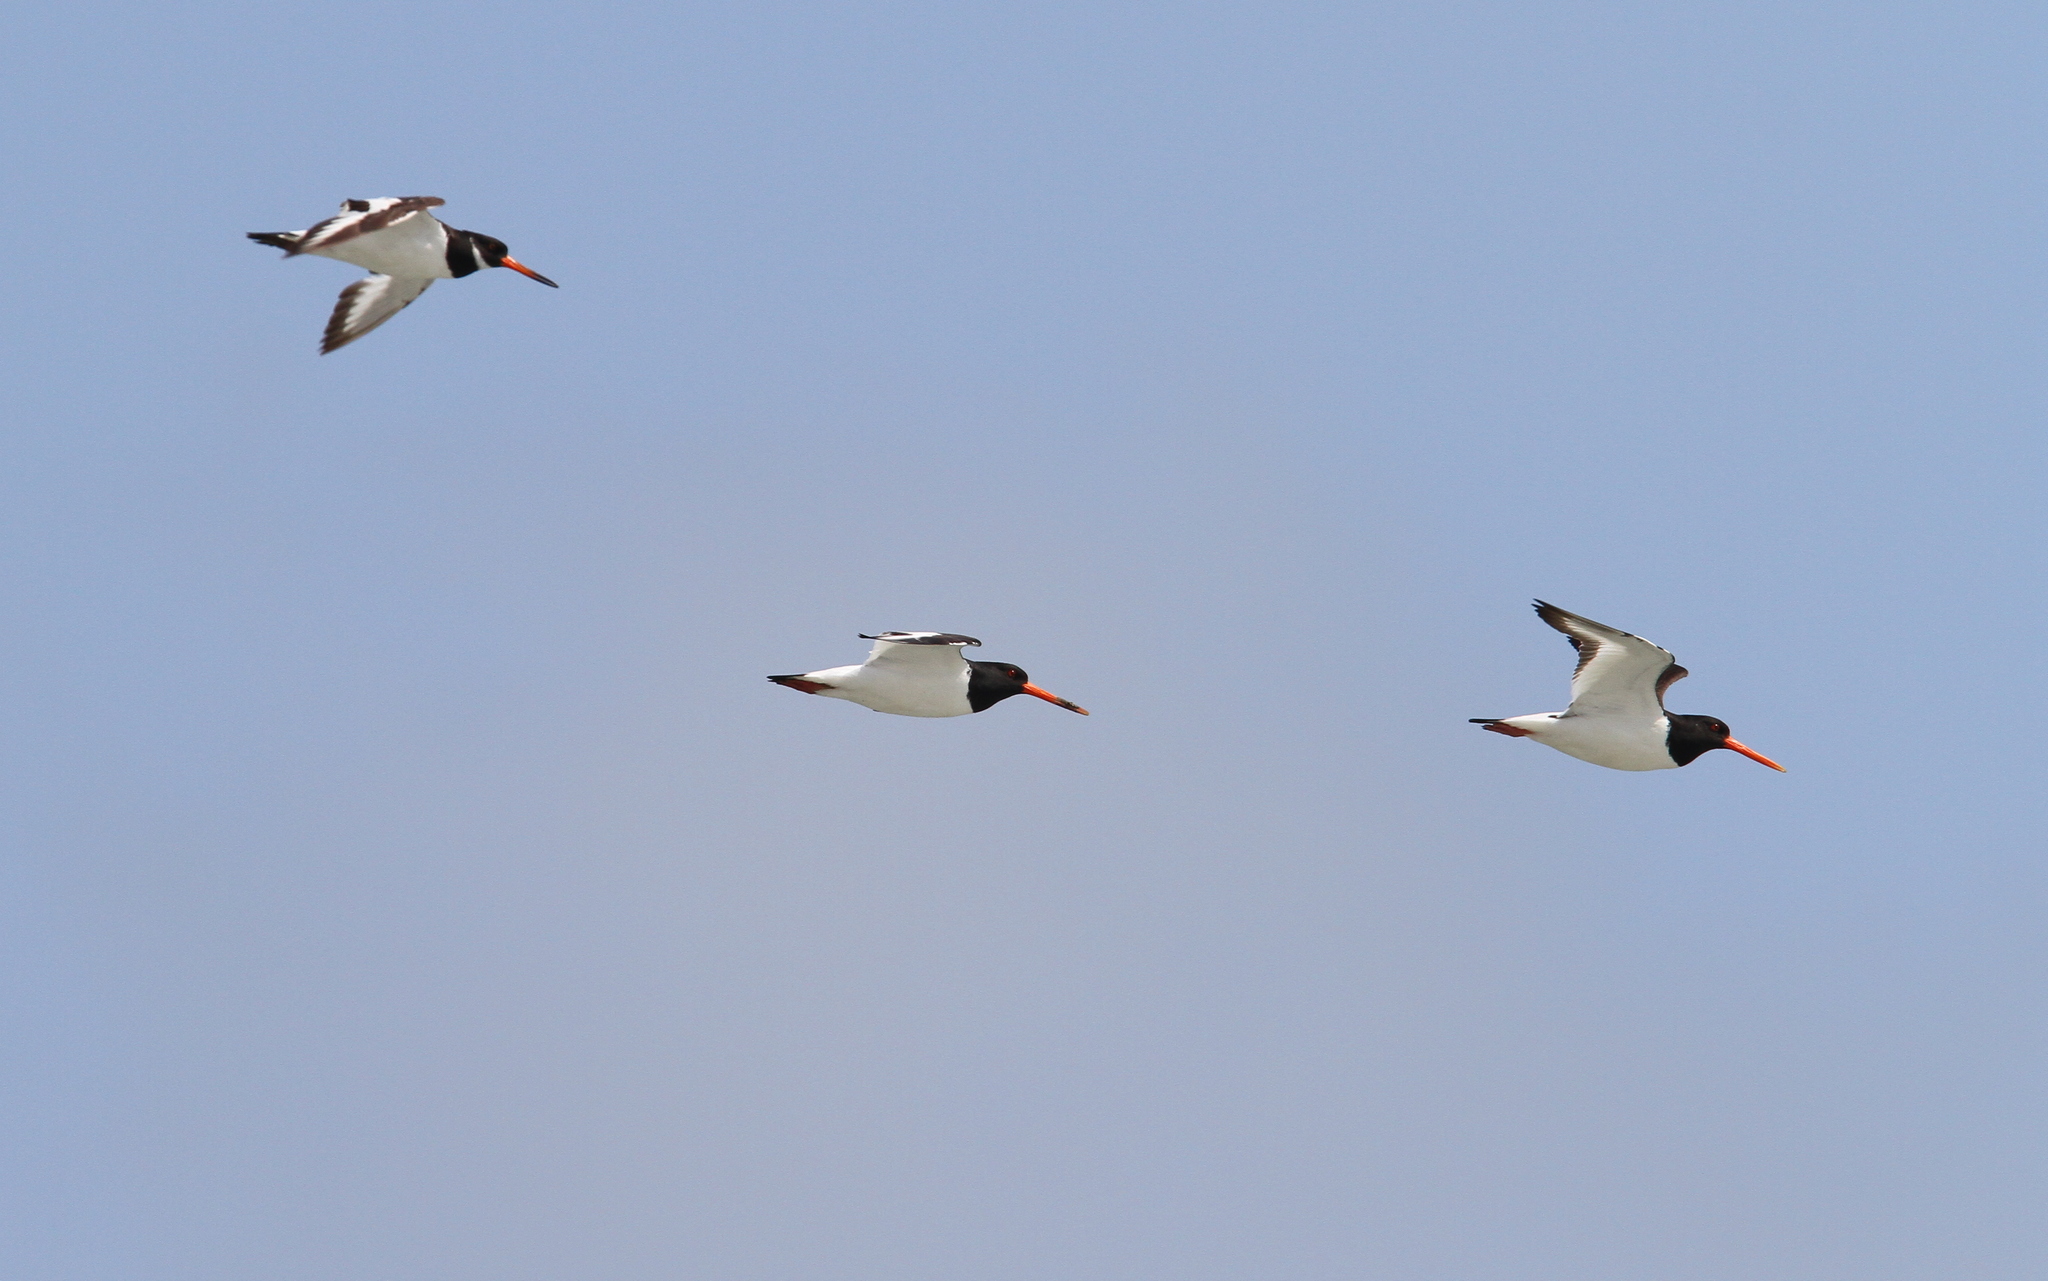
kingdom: Animalia
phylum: Chordata
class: Aves
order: Charadriiformes
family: Haematopodidae
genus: Haematopus
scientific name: Haematopus ostralegus
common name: Eurasian oystercatcher
